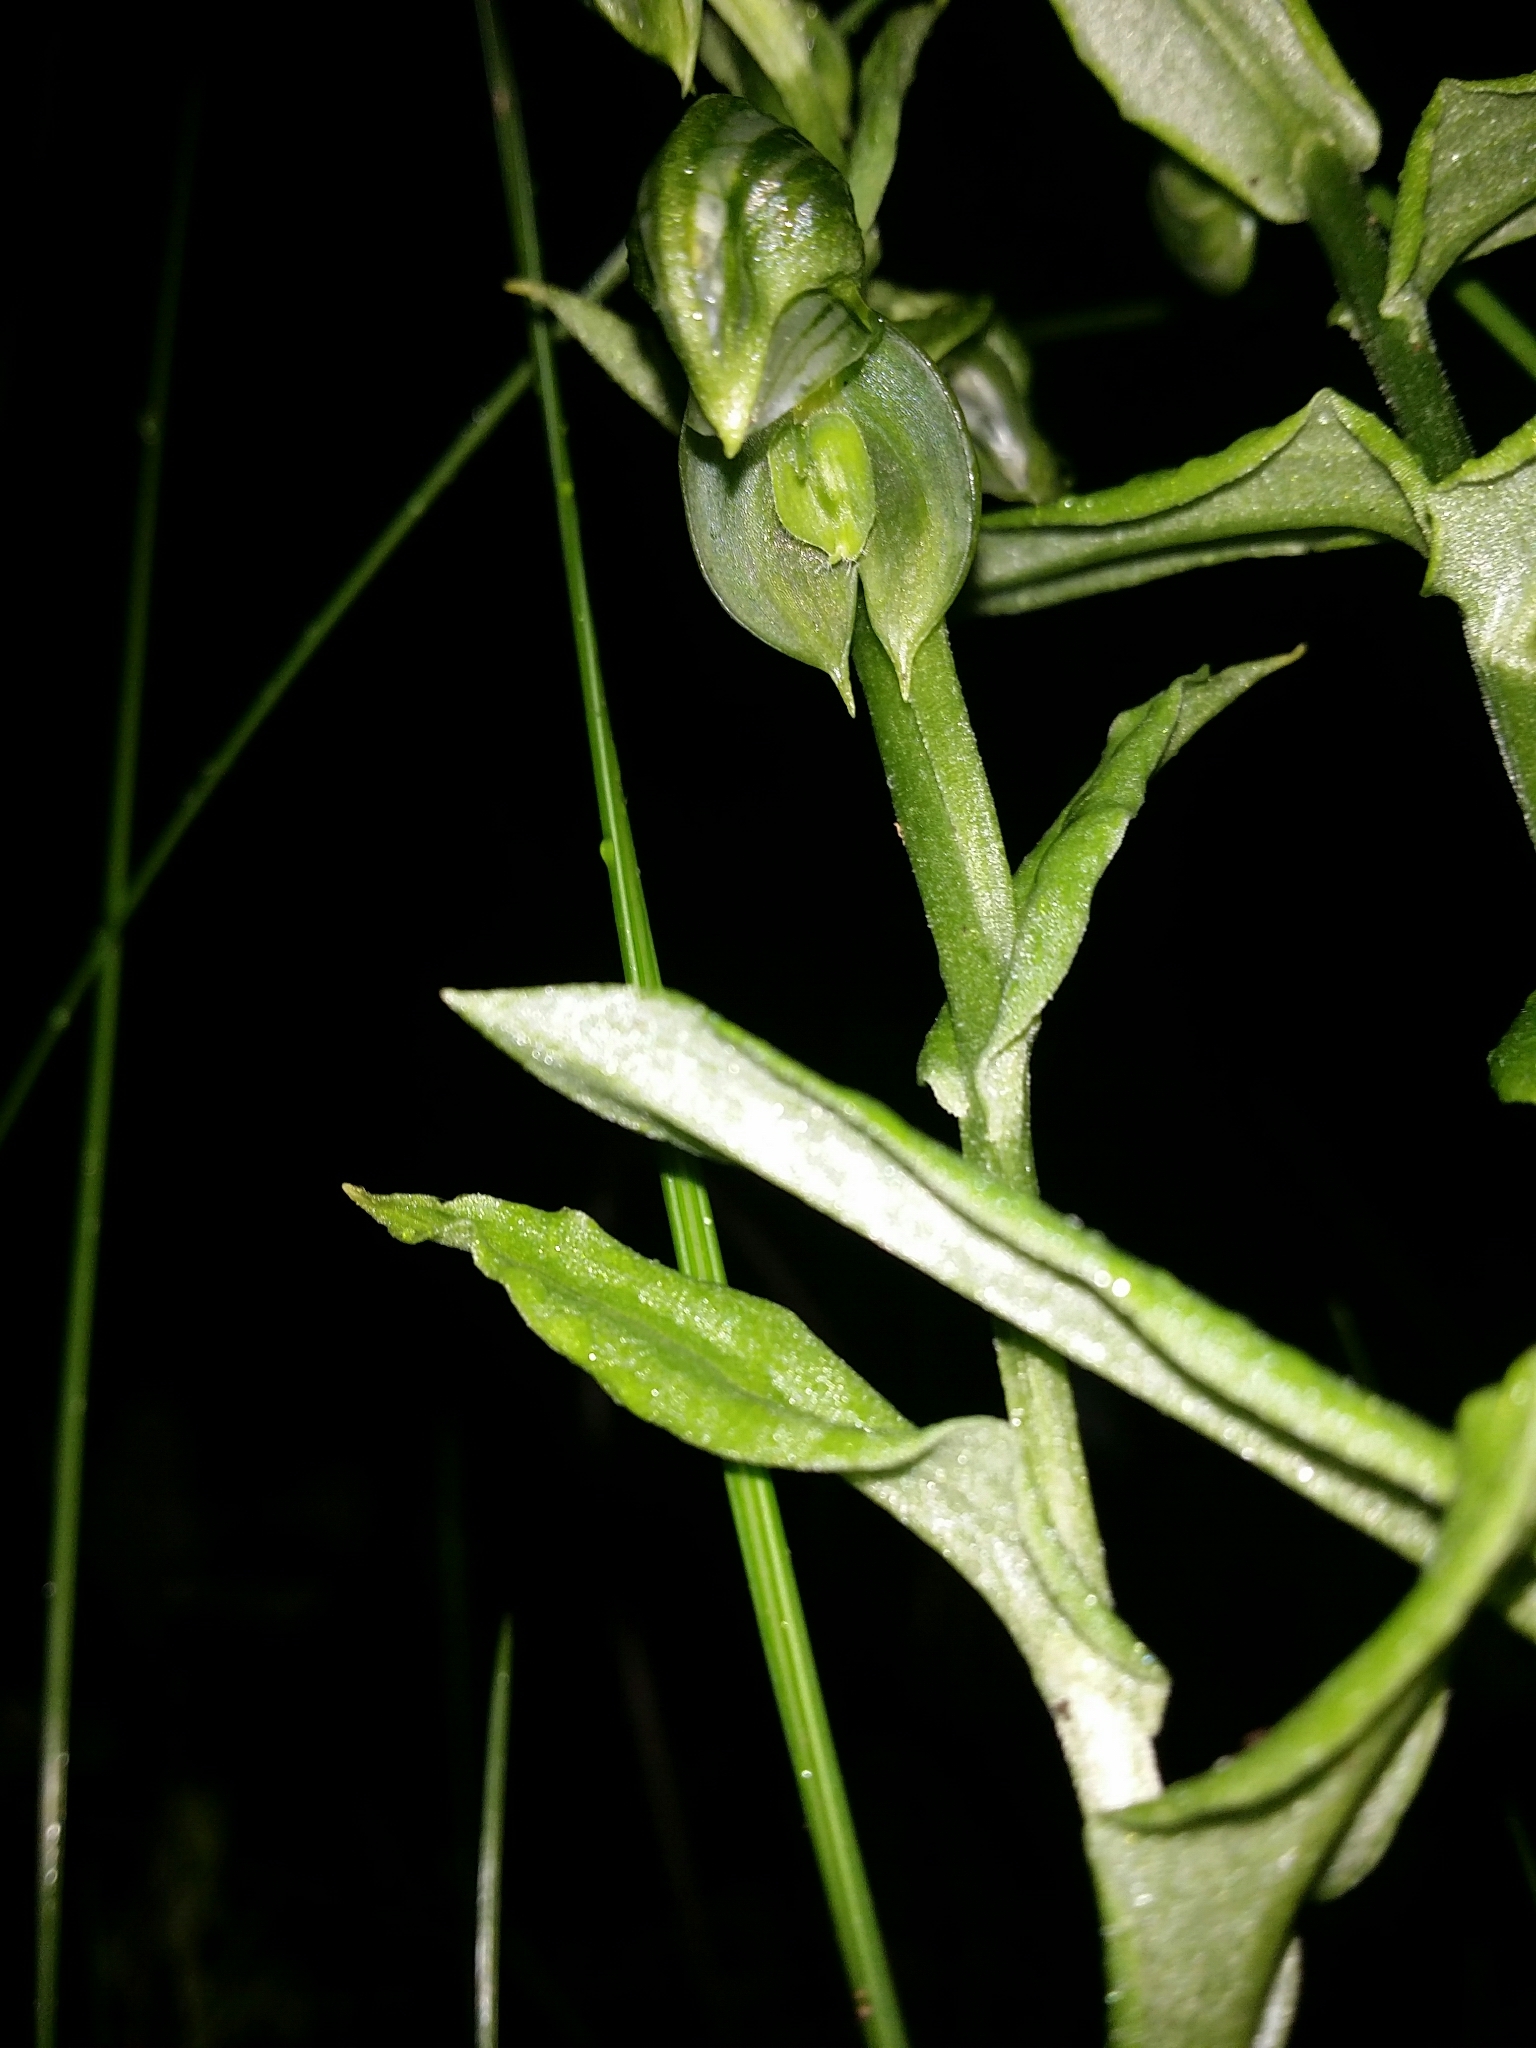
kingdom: Plantae
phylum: Tracheophyta
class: Liliopsida
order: Asparagales
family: Orchidaceae
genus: Pterostylis
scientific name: Pterostylis vittata
